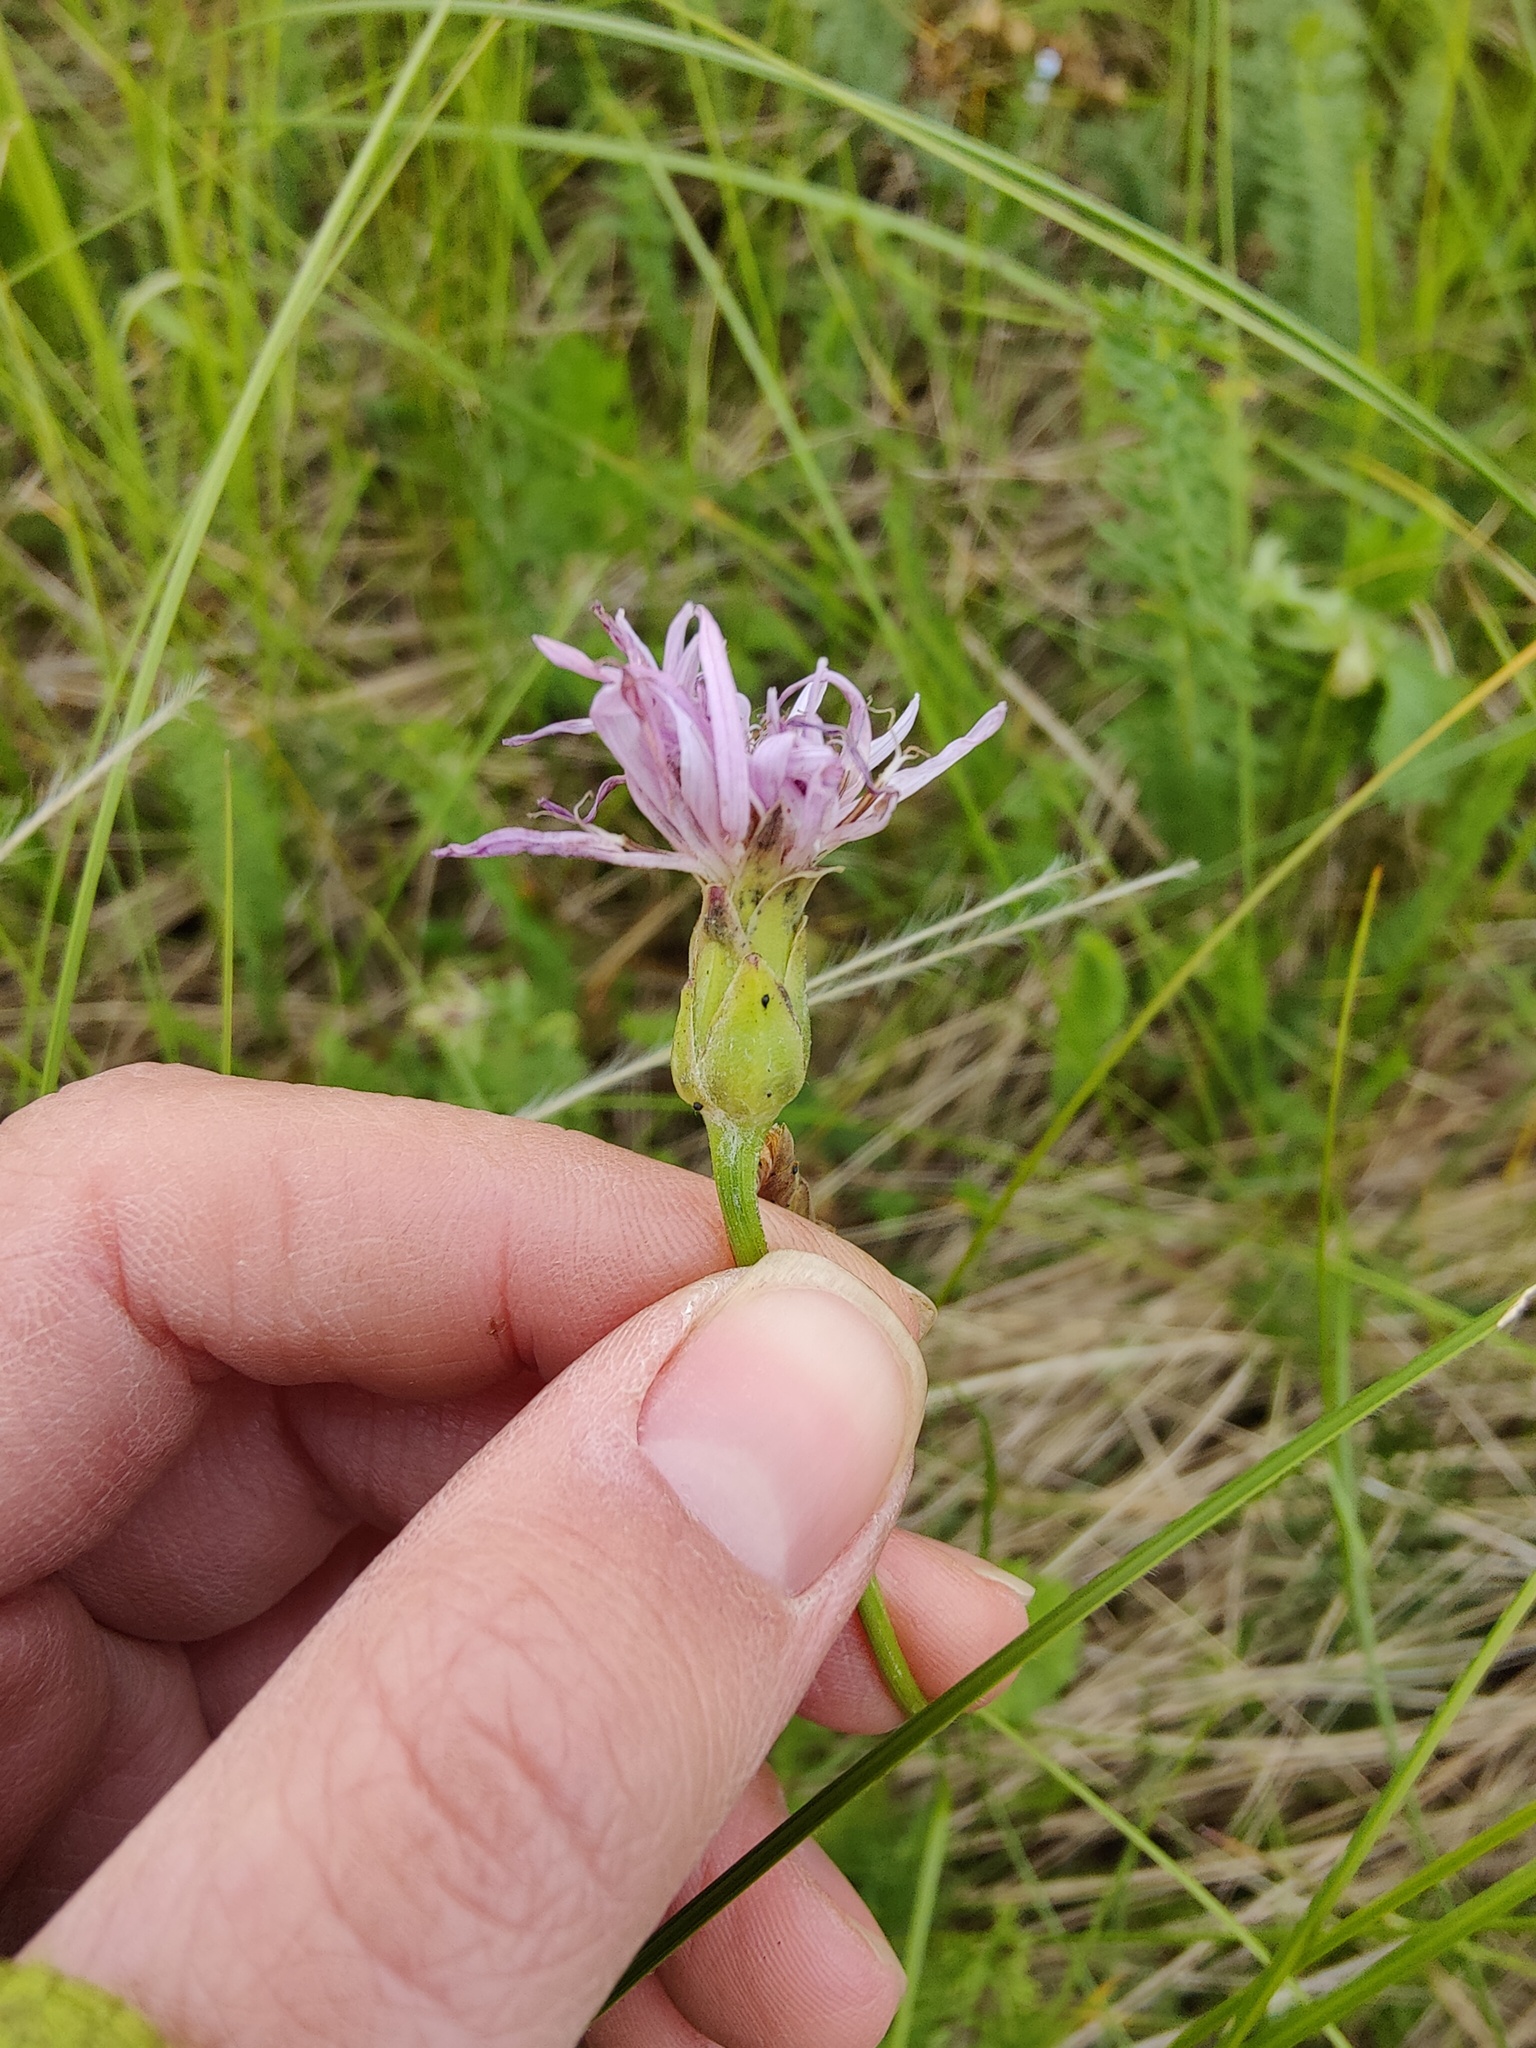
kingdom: Plantae
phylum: Tracheophyta
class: Magnoliopsida
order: Asterales
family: Asteraceae
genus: Scorzonera
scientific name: Scorzonera purpurea
